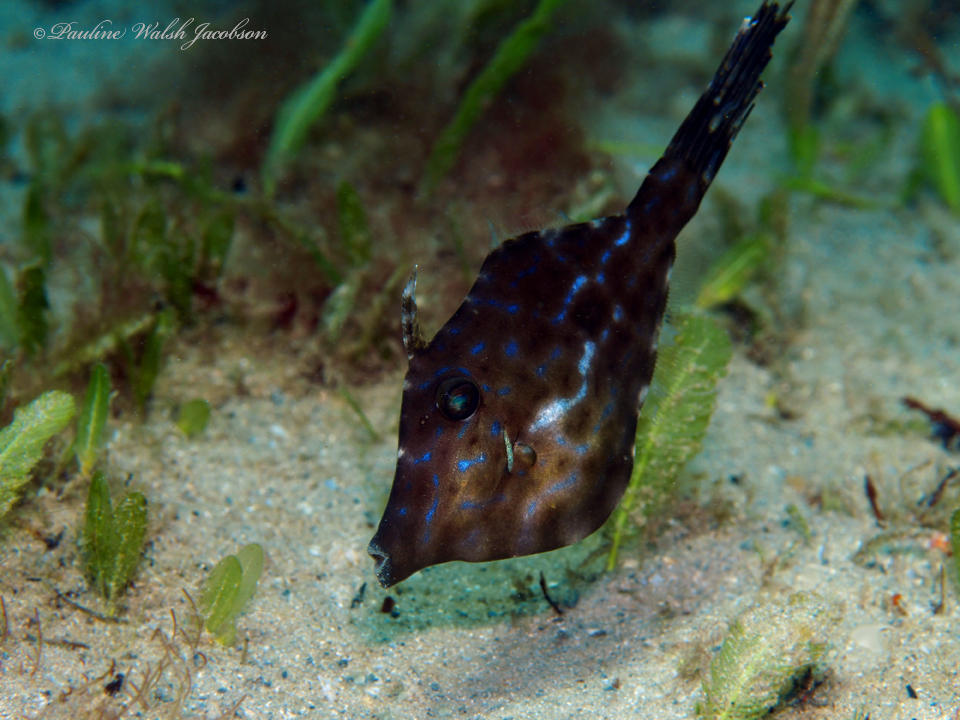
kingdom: Animalia
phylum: Chordata
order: Tetraodontiformes
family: Monacanthidae
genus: Aluterus
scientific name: Aluterus heudelotii
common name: Dottered filefish
